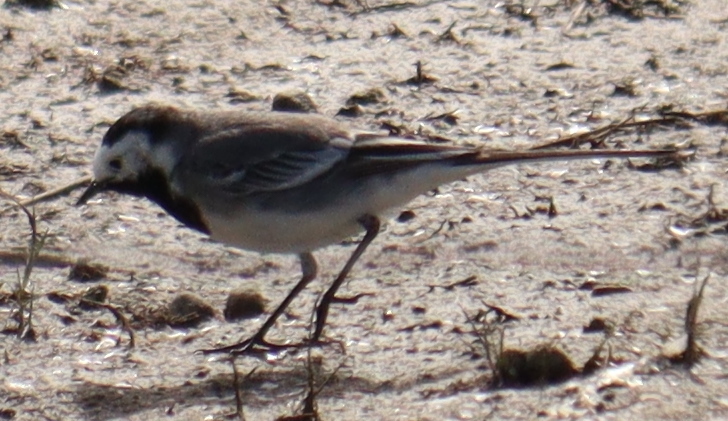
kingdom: Animalia
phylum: Chordata
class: Aves
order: Passeriformes
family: Motacillidae
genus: Motacilla
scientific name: Motacilla alba
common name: White wagtail
